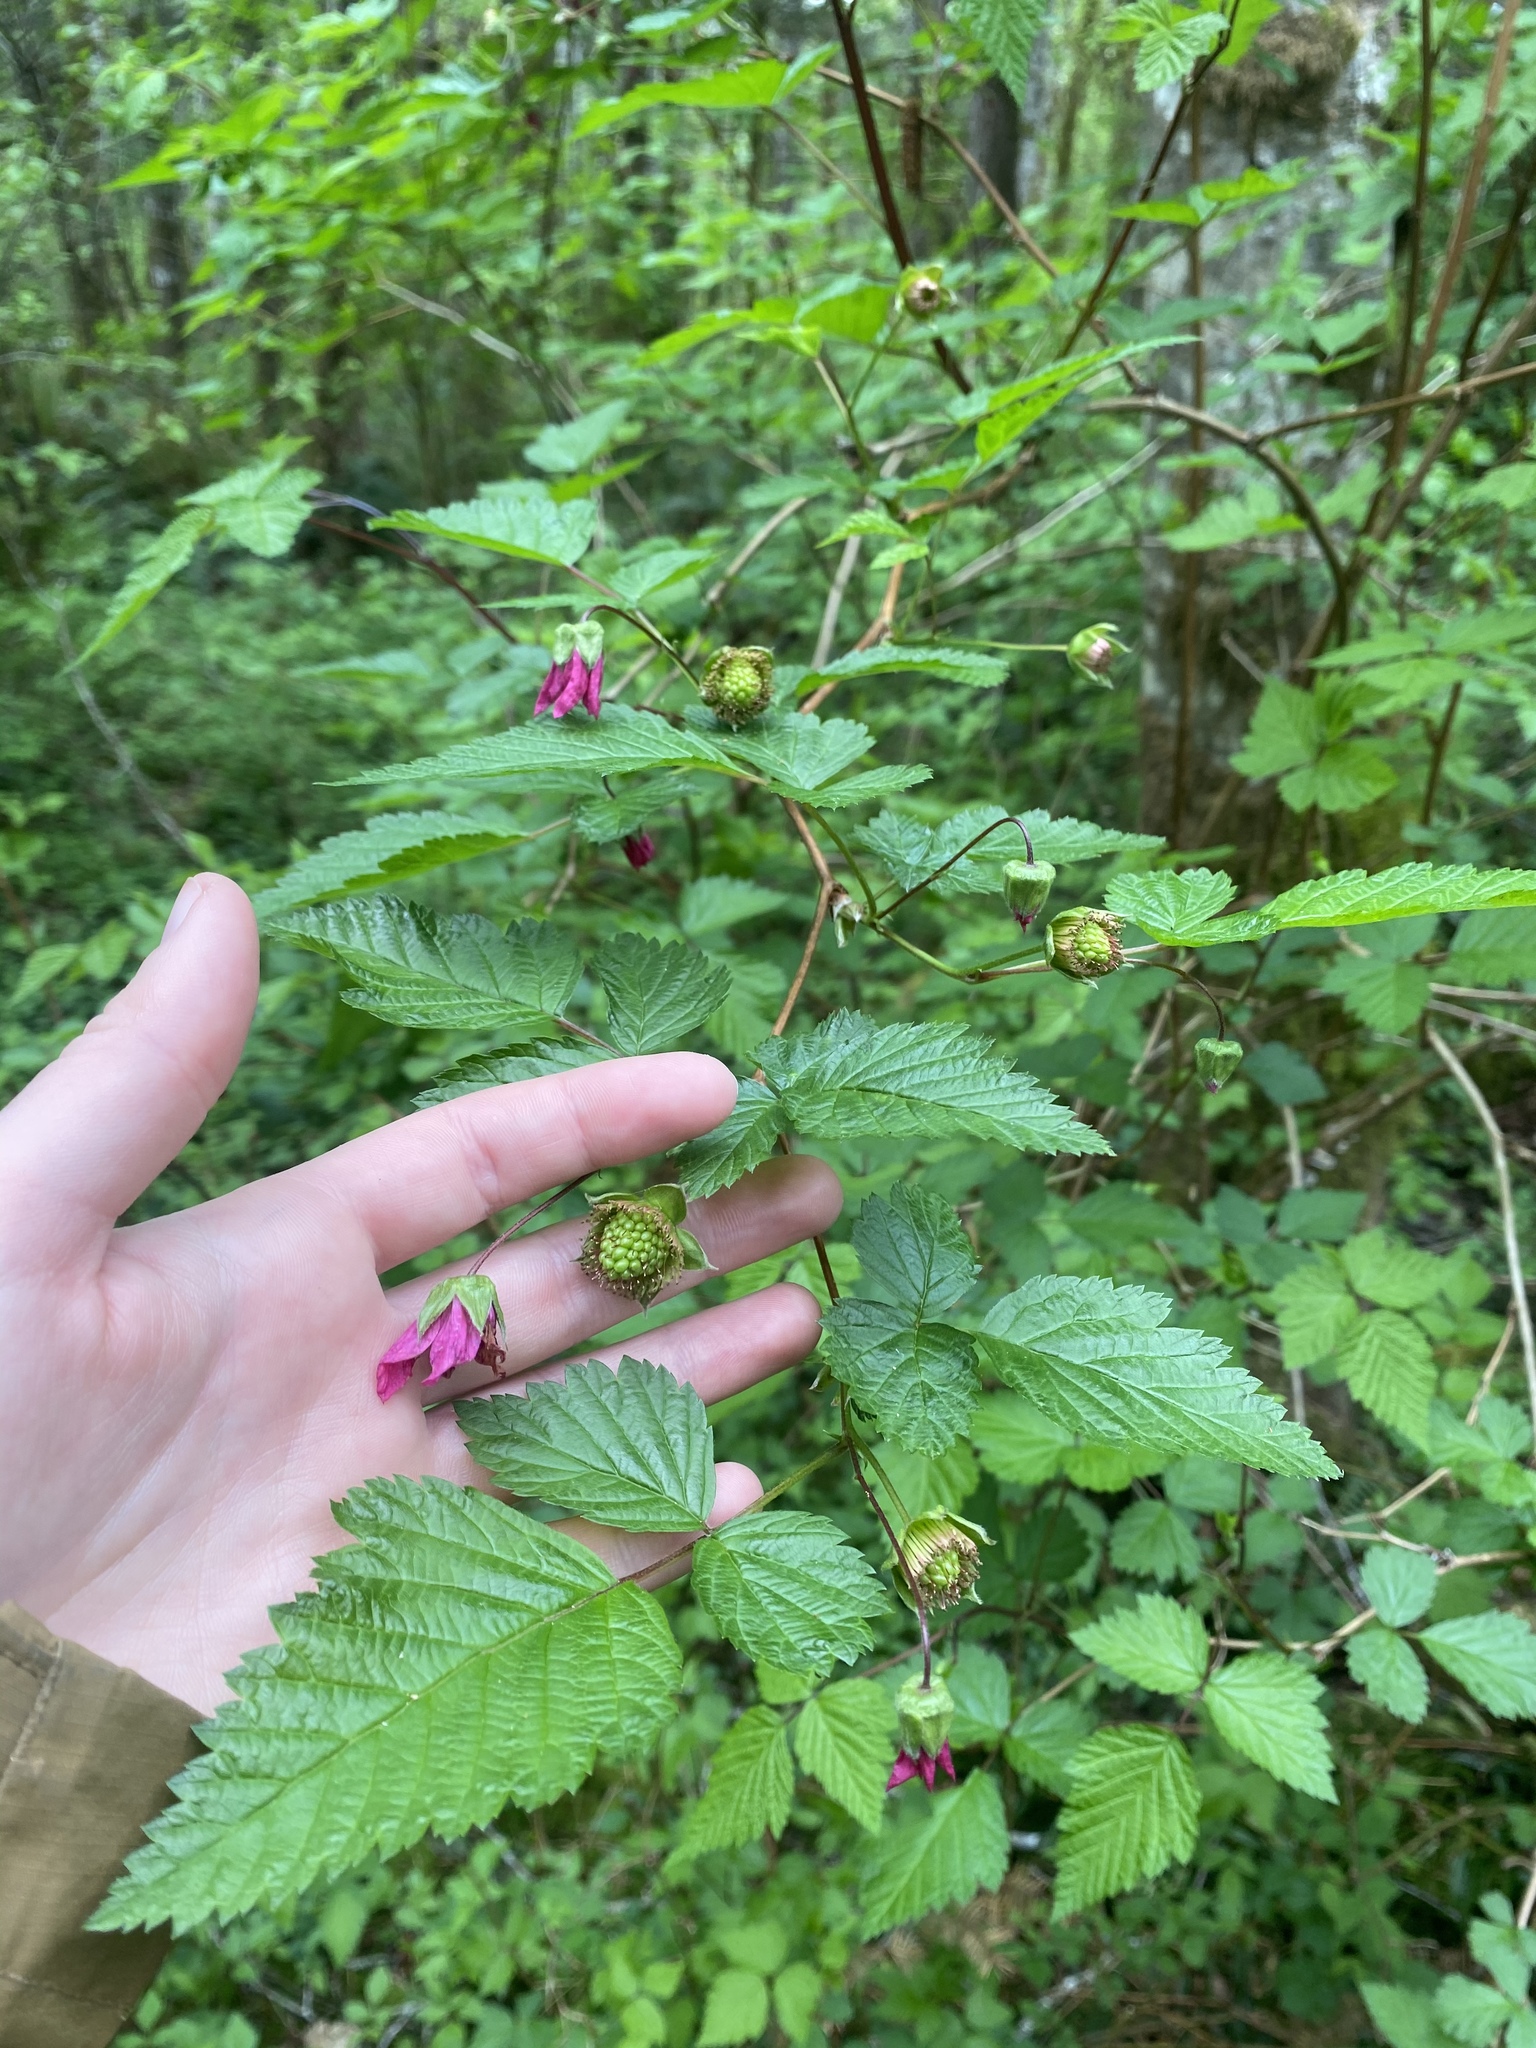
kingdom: Plantae
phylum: Tracheophyta
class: Magnoliopsida
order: Rosales
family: Rosaceae
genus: Rubus
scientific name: Rubus spectabilis
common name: Salmonberry
